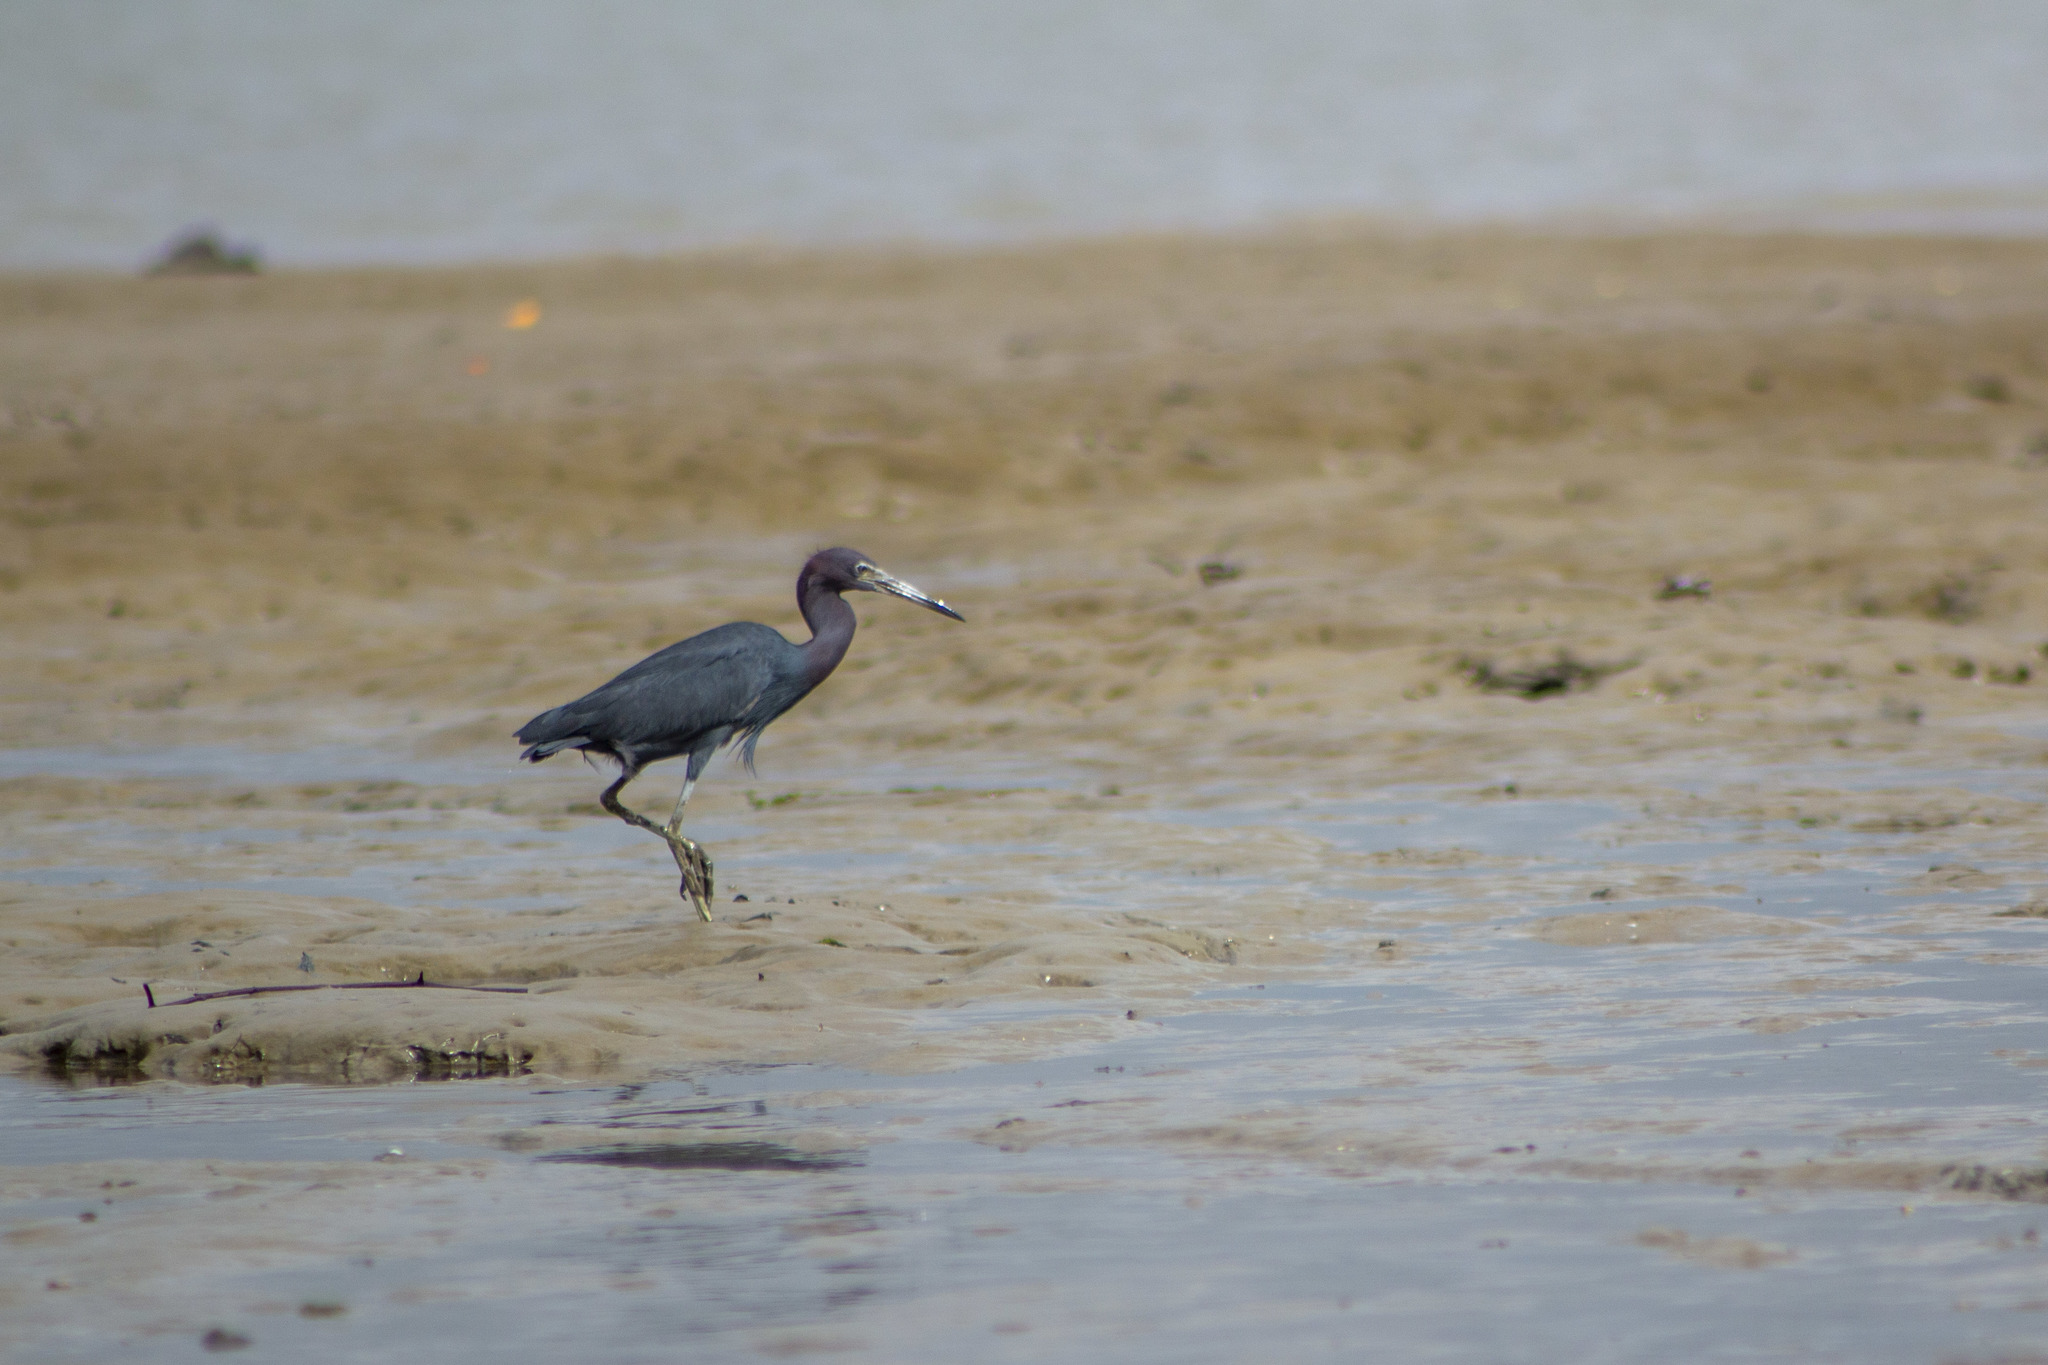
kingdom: Animalia
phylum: Chordata
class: Aves
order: Pelecaniformes
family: Ardeidae
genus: Egretta
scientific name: Egretta caerulea
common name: Little blue heron
